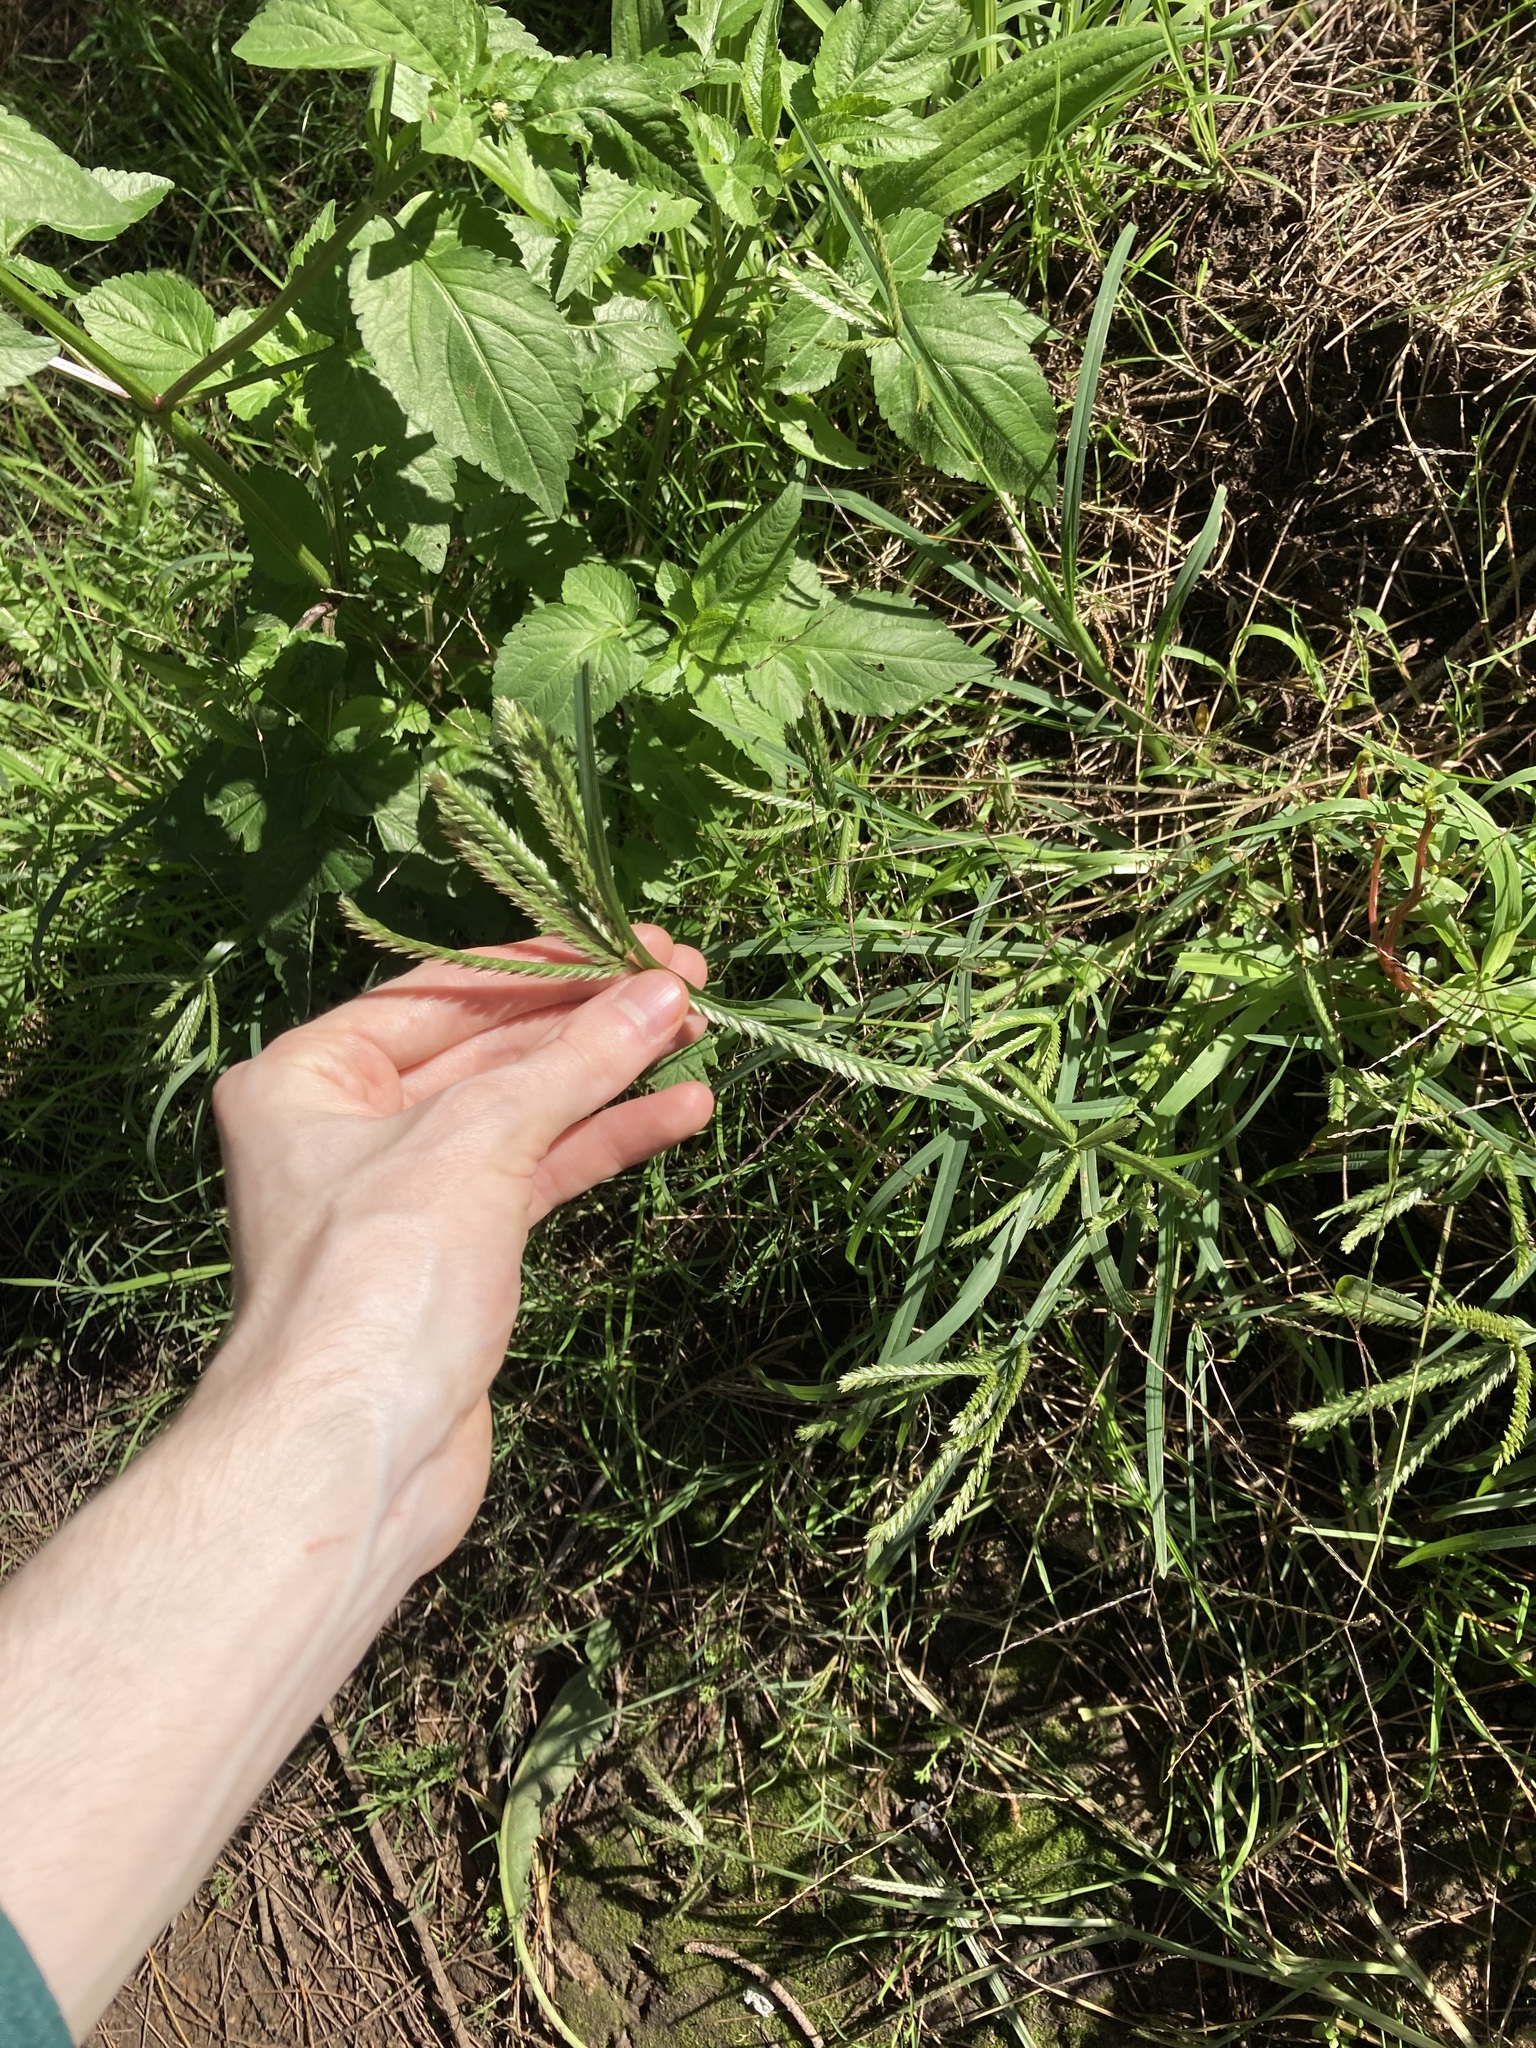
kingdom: Plantae
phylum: Tracheophyta
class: Liliopsida
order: Poales
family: Poaceae
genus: Eleusine
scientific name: Eleusine indica
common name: Yard-grass
